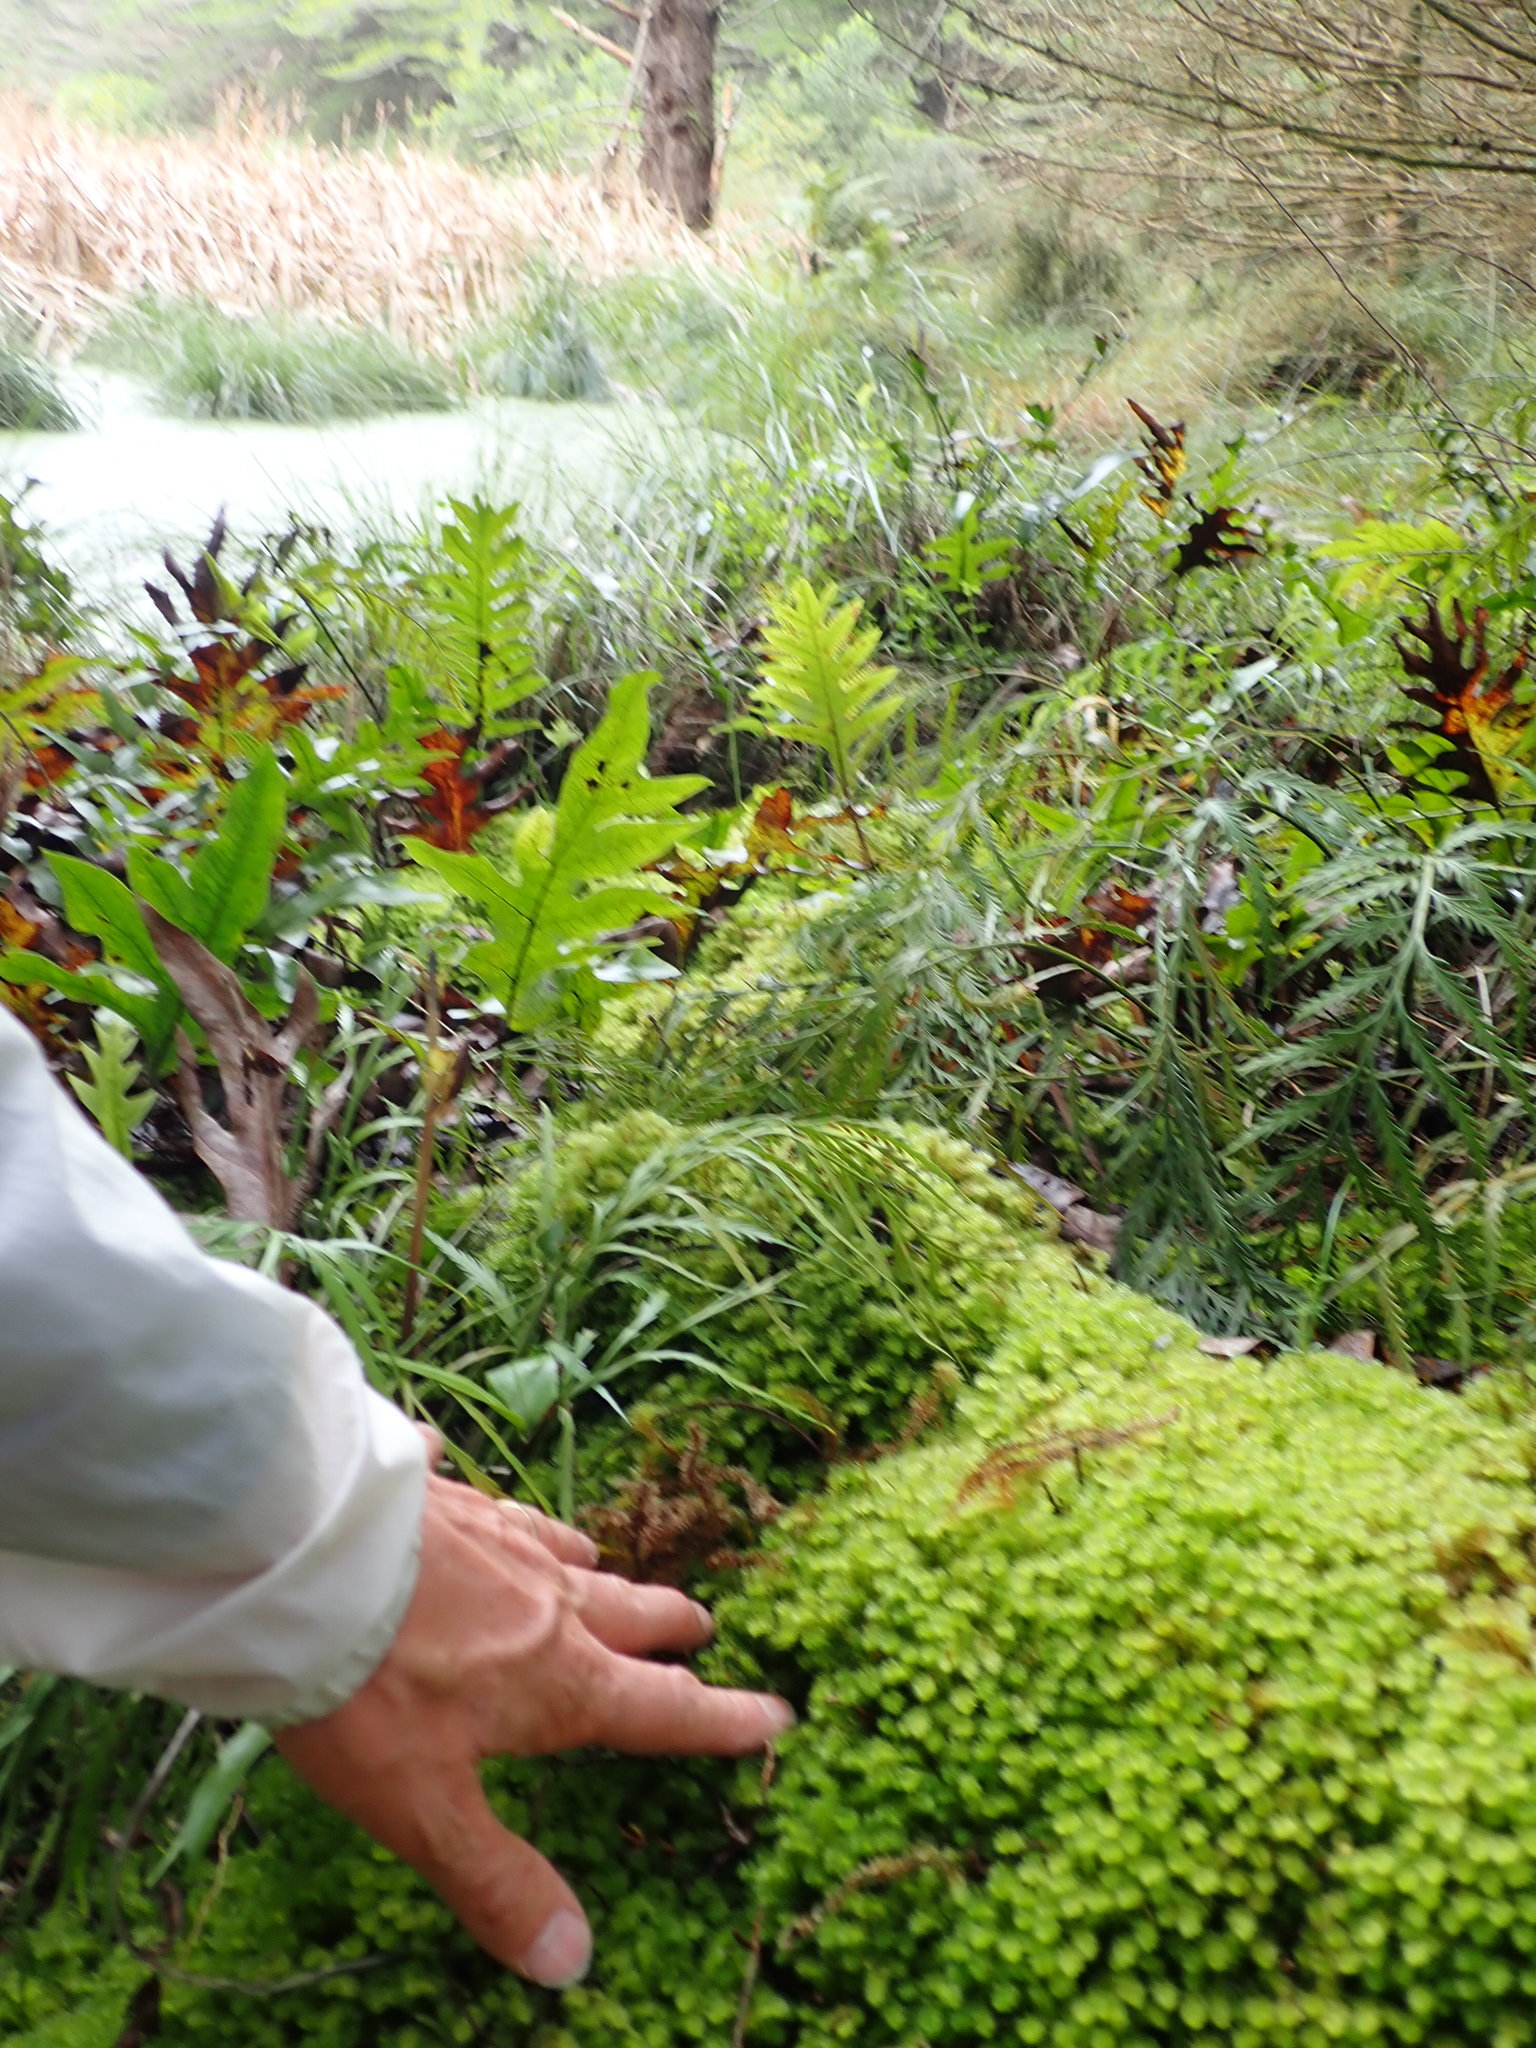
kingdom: Plantae
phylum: Bryophyta
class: Bryopsida
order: Ptychomniales
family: Ptychomniaceae
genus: Ptychomnion
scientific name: Ptychomnion aciculare
